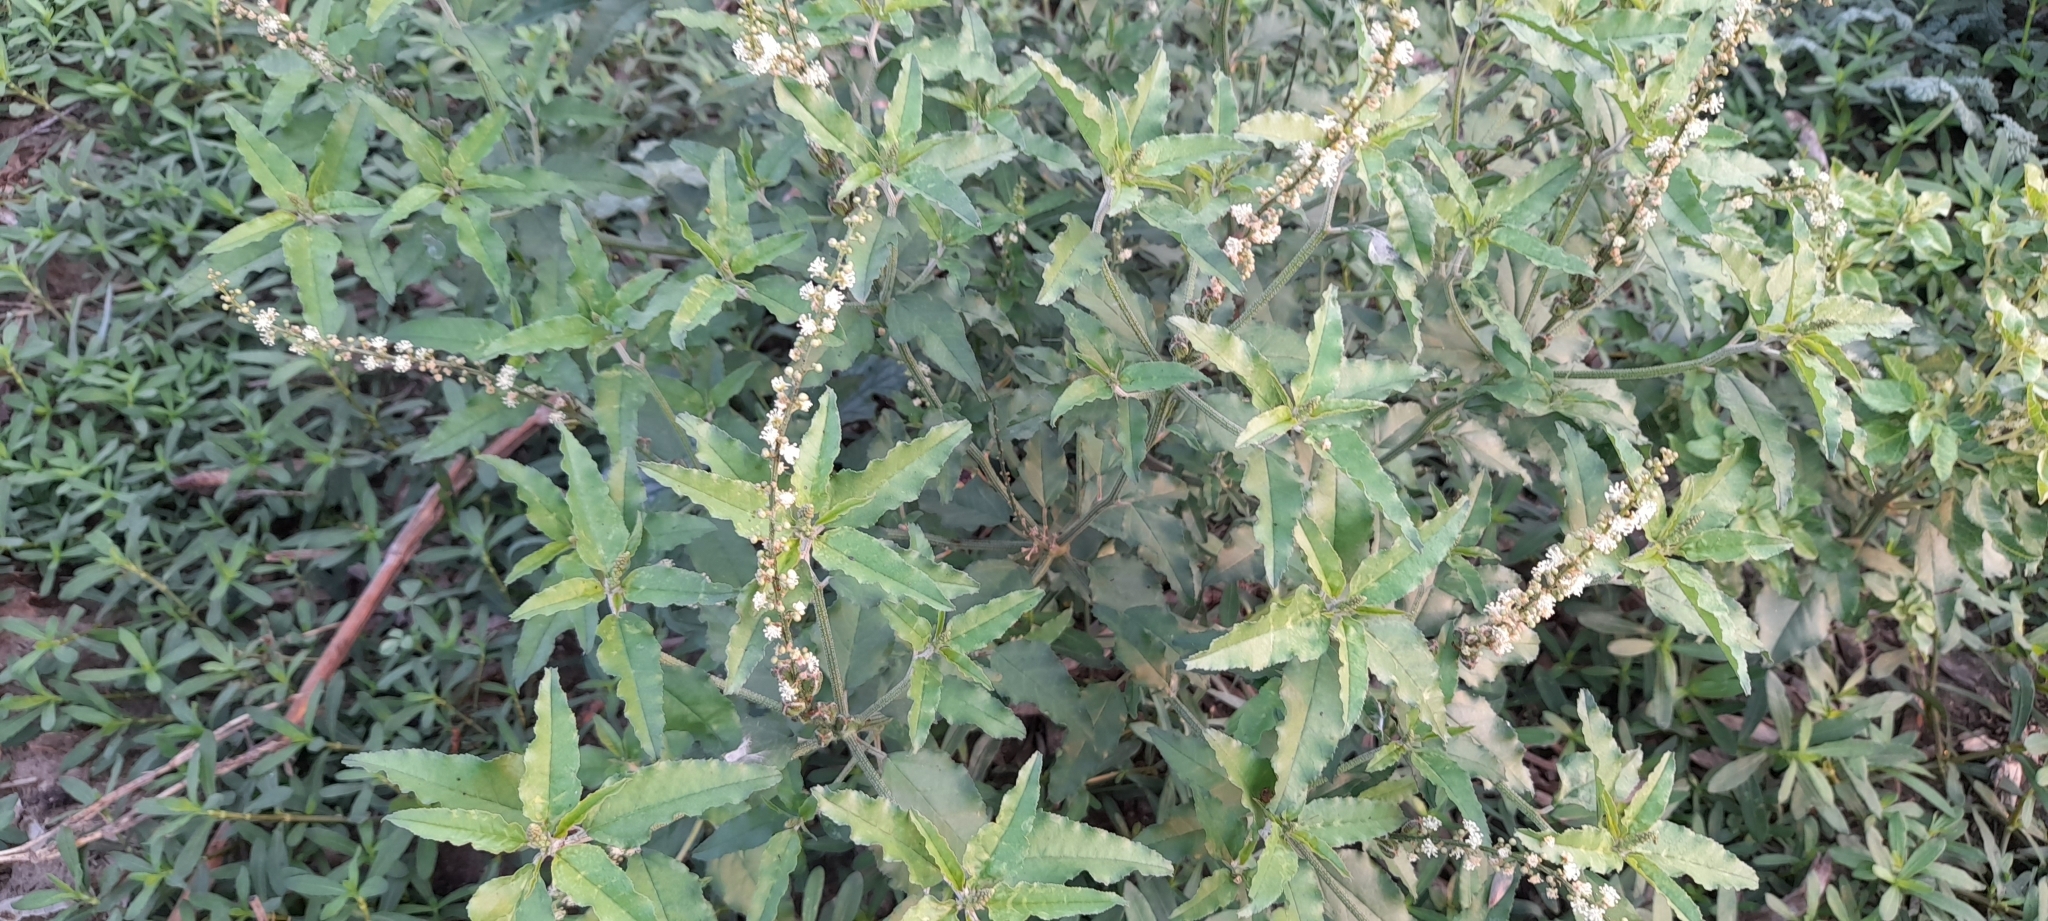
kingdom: Plantae
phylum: Tracheophyta
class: Magnoliopsida
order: Malpighiales
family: Euphorbiaceae
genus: Croton
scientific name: Croton bonplandianus
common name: Bonpland's croton
